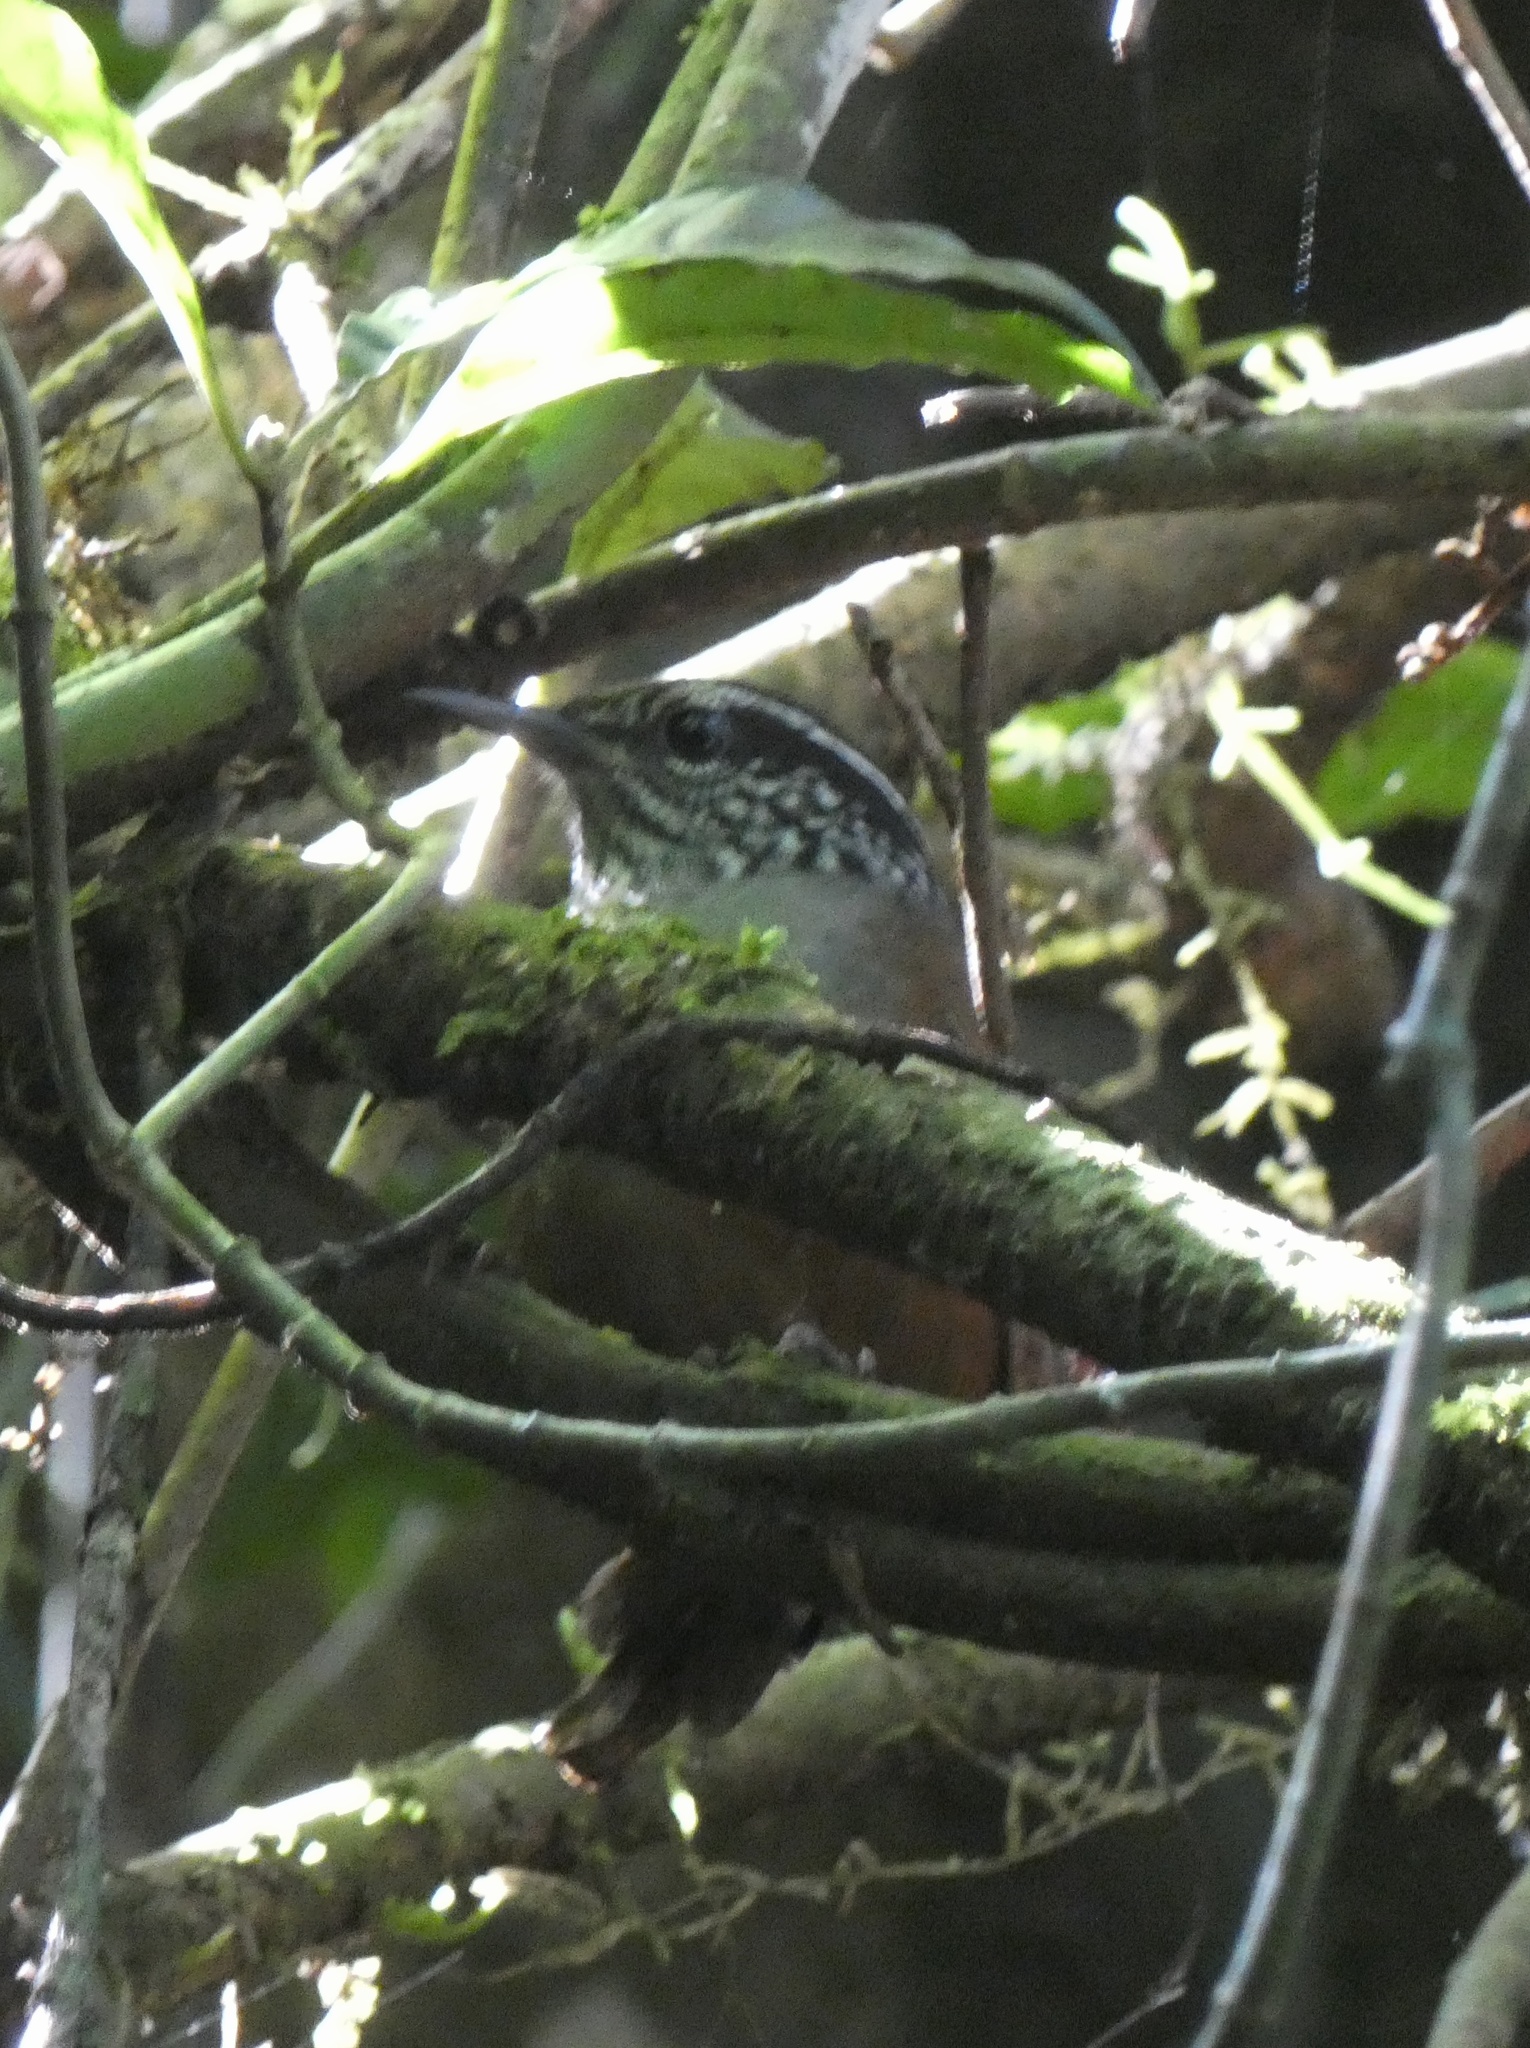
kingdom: Animalia
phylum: Chordata
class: Aves
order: Passeriformes
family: Troglodytidae
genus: Henicorhina
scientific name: Henicorhina leucophrys
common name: Gray-breasted wood-wren
